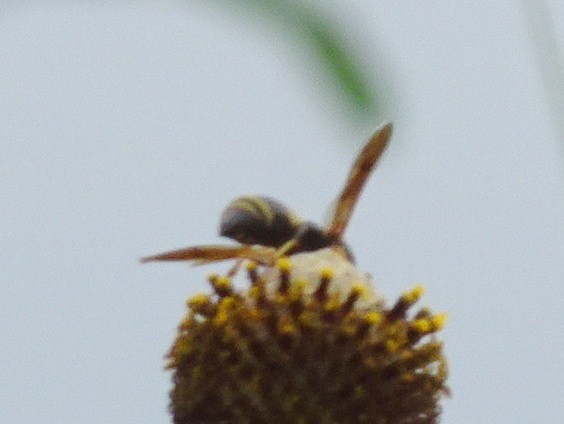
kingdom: Animalia
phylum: Arthropoda
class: Insecta
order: Hymenoptera
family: Eumenidae
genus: Euodynerus
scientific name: Euodynerus hidalgo
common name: Wasp
